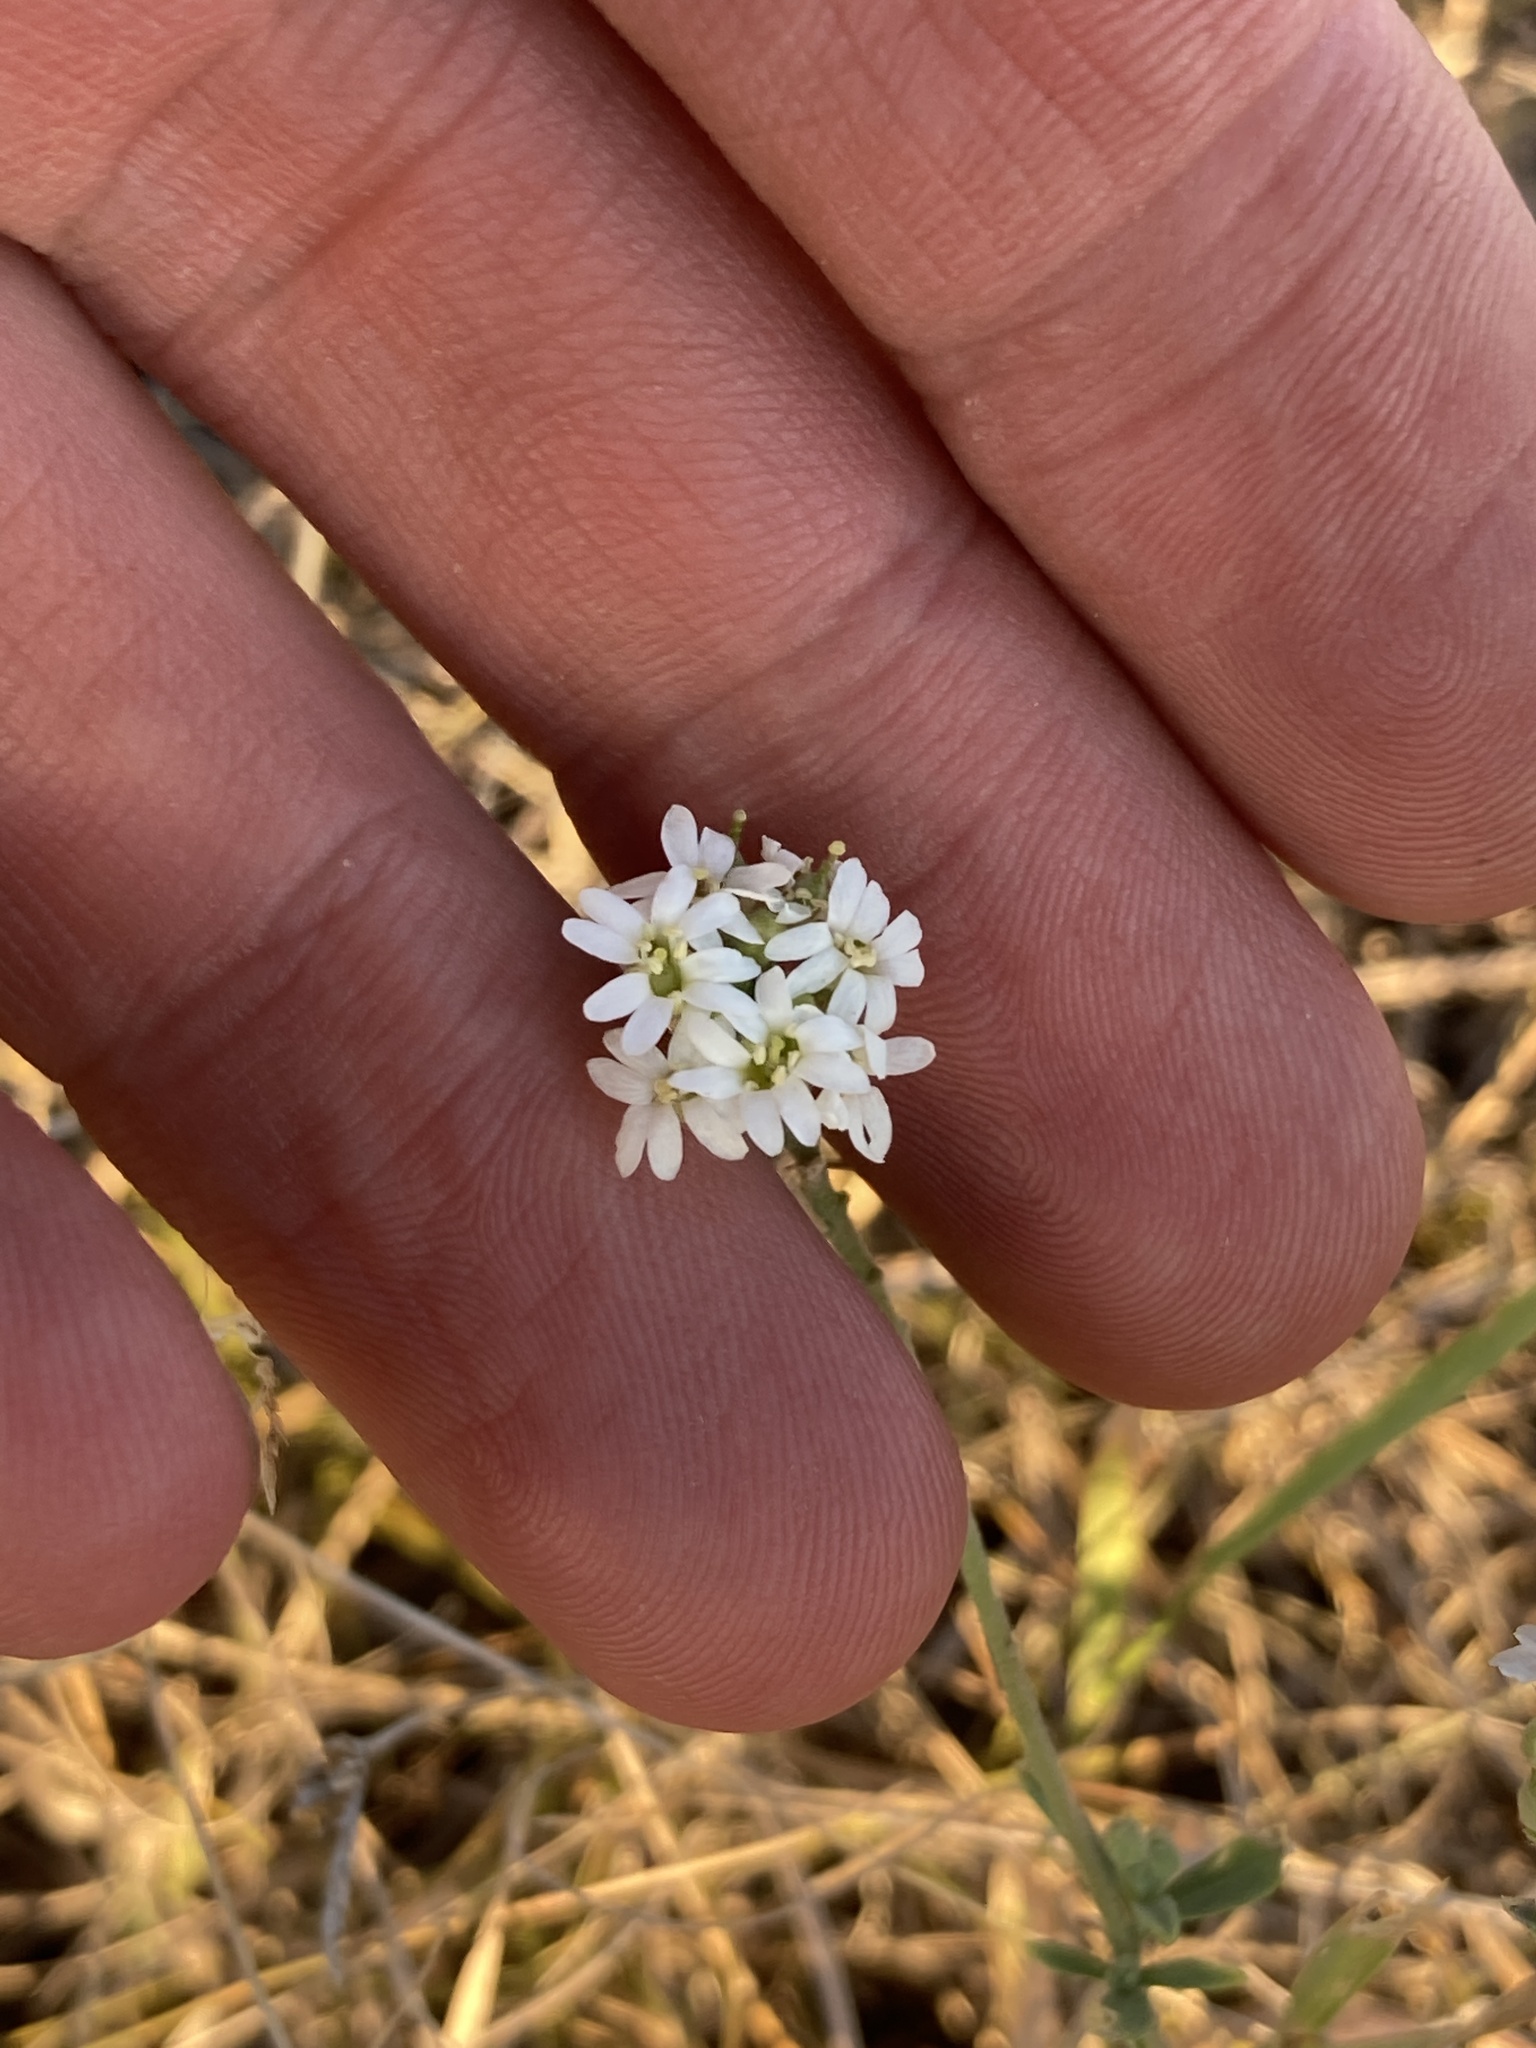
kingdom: Plantae
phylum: Tracheophyta
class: Magnoliopsida
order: Brassicales
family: Brassicaceae
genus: Berteroa
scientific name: Berteroa incana
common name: Hoary alison
